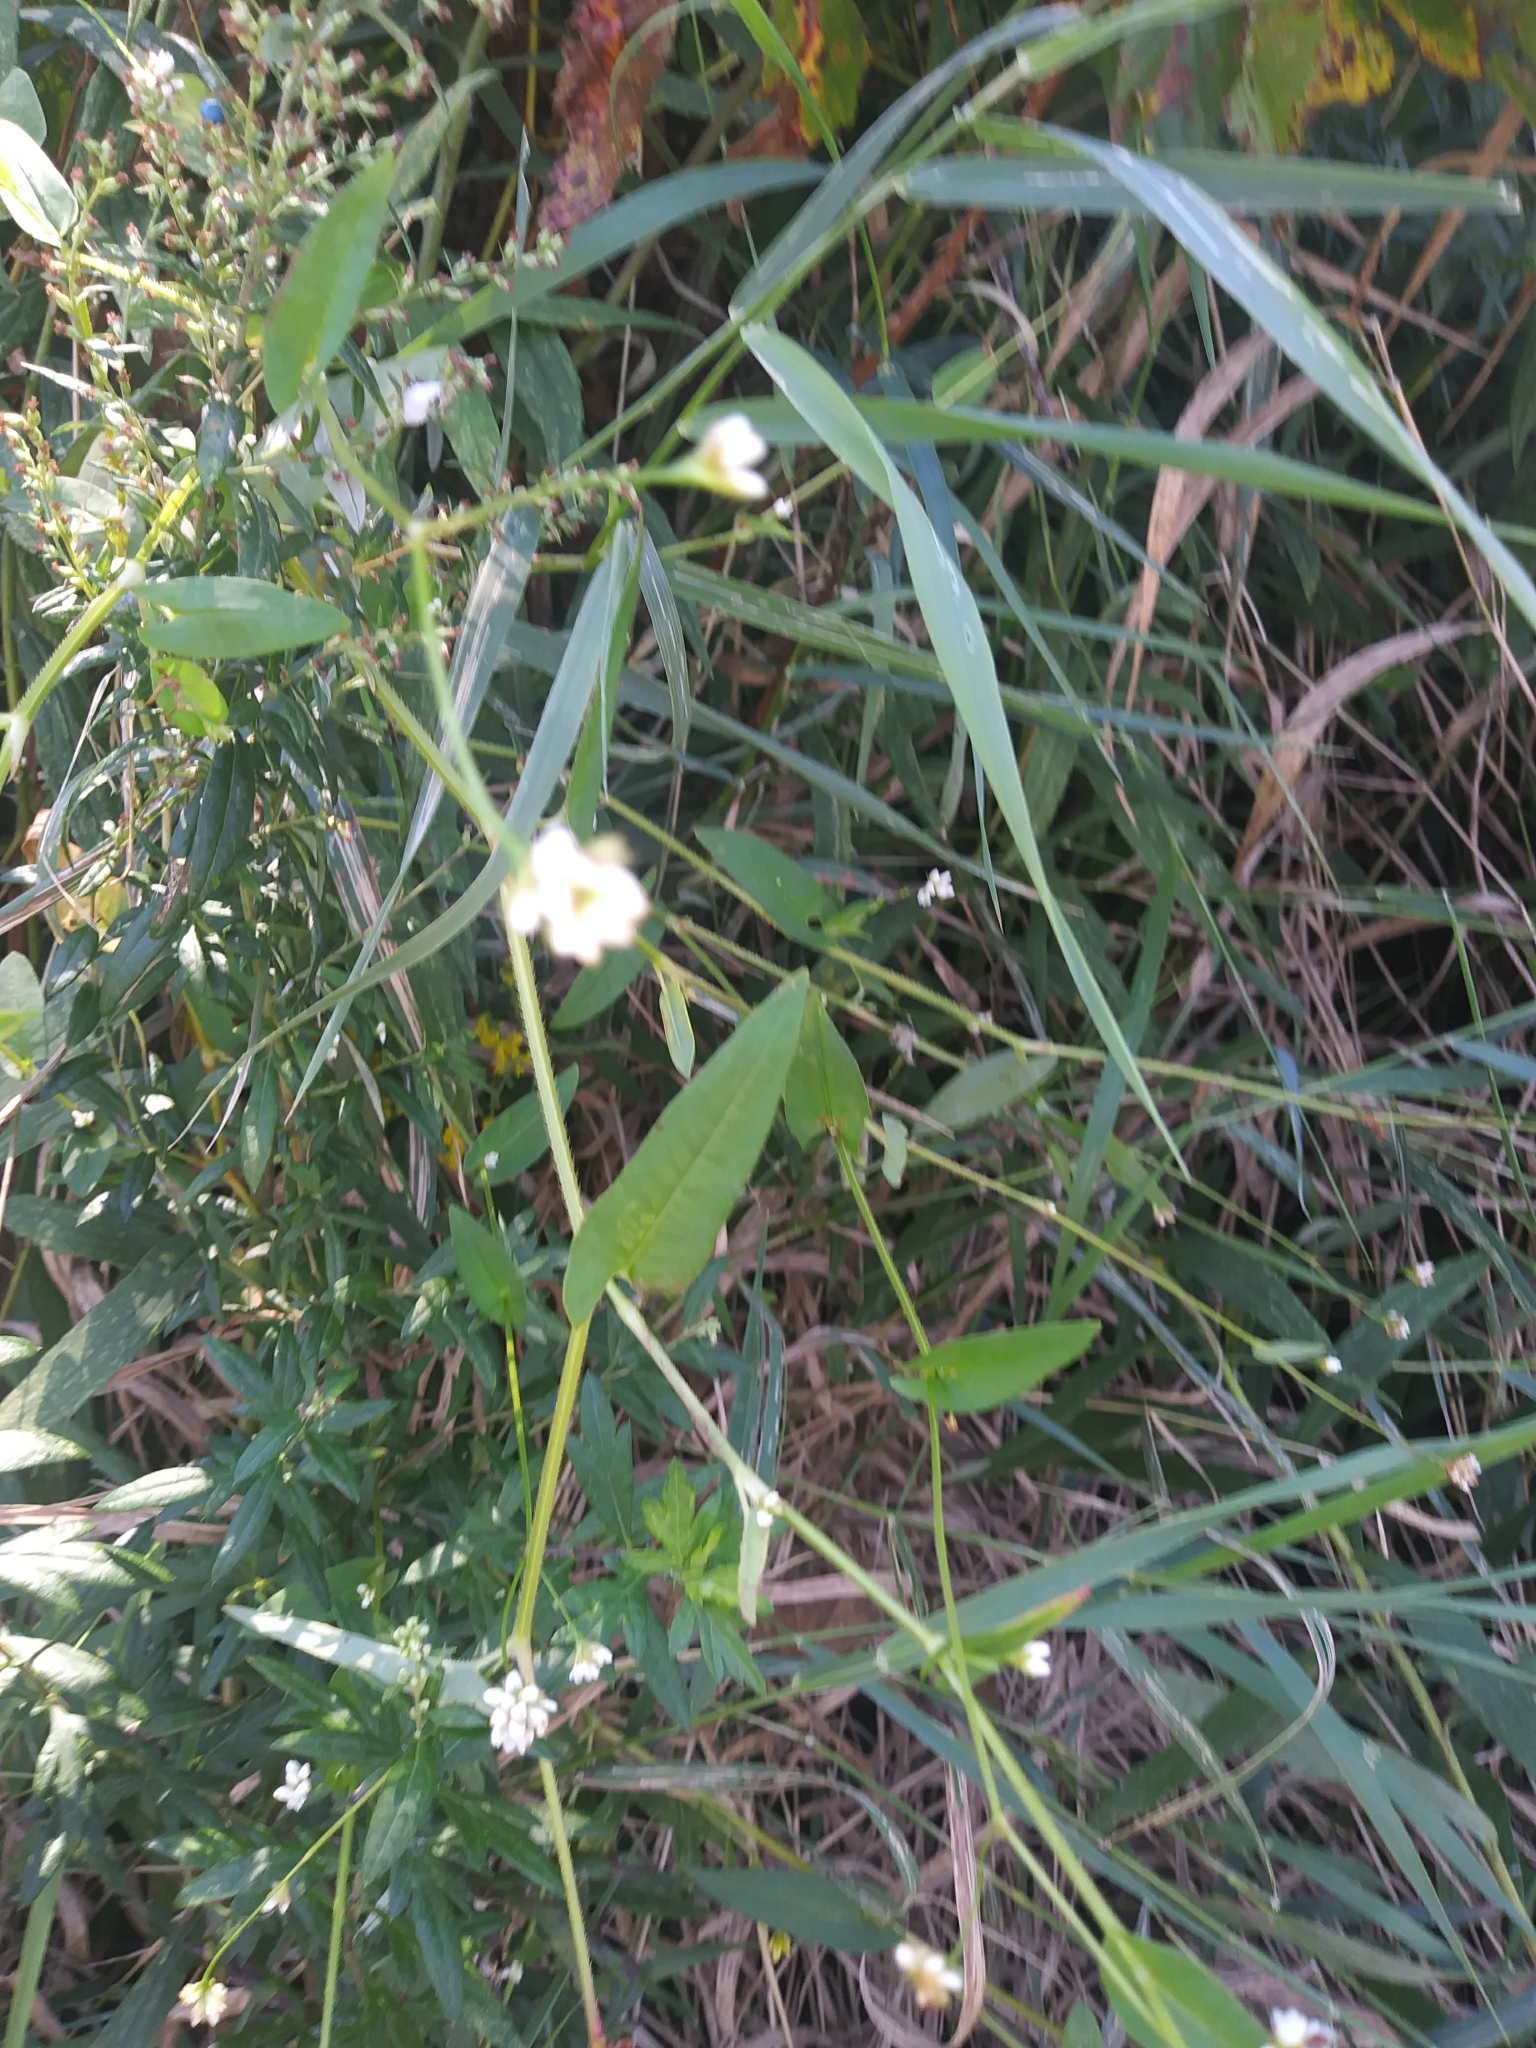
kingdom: Plantae
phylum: Tracheophyta
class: Magnoliopsida
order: Caryophyllales
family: Polygonaceae
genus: Persicaria
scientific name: Persicaria sagittata
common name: American tearthumb
